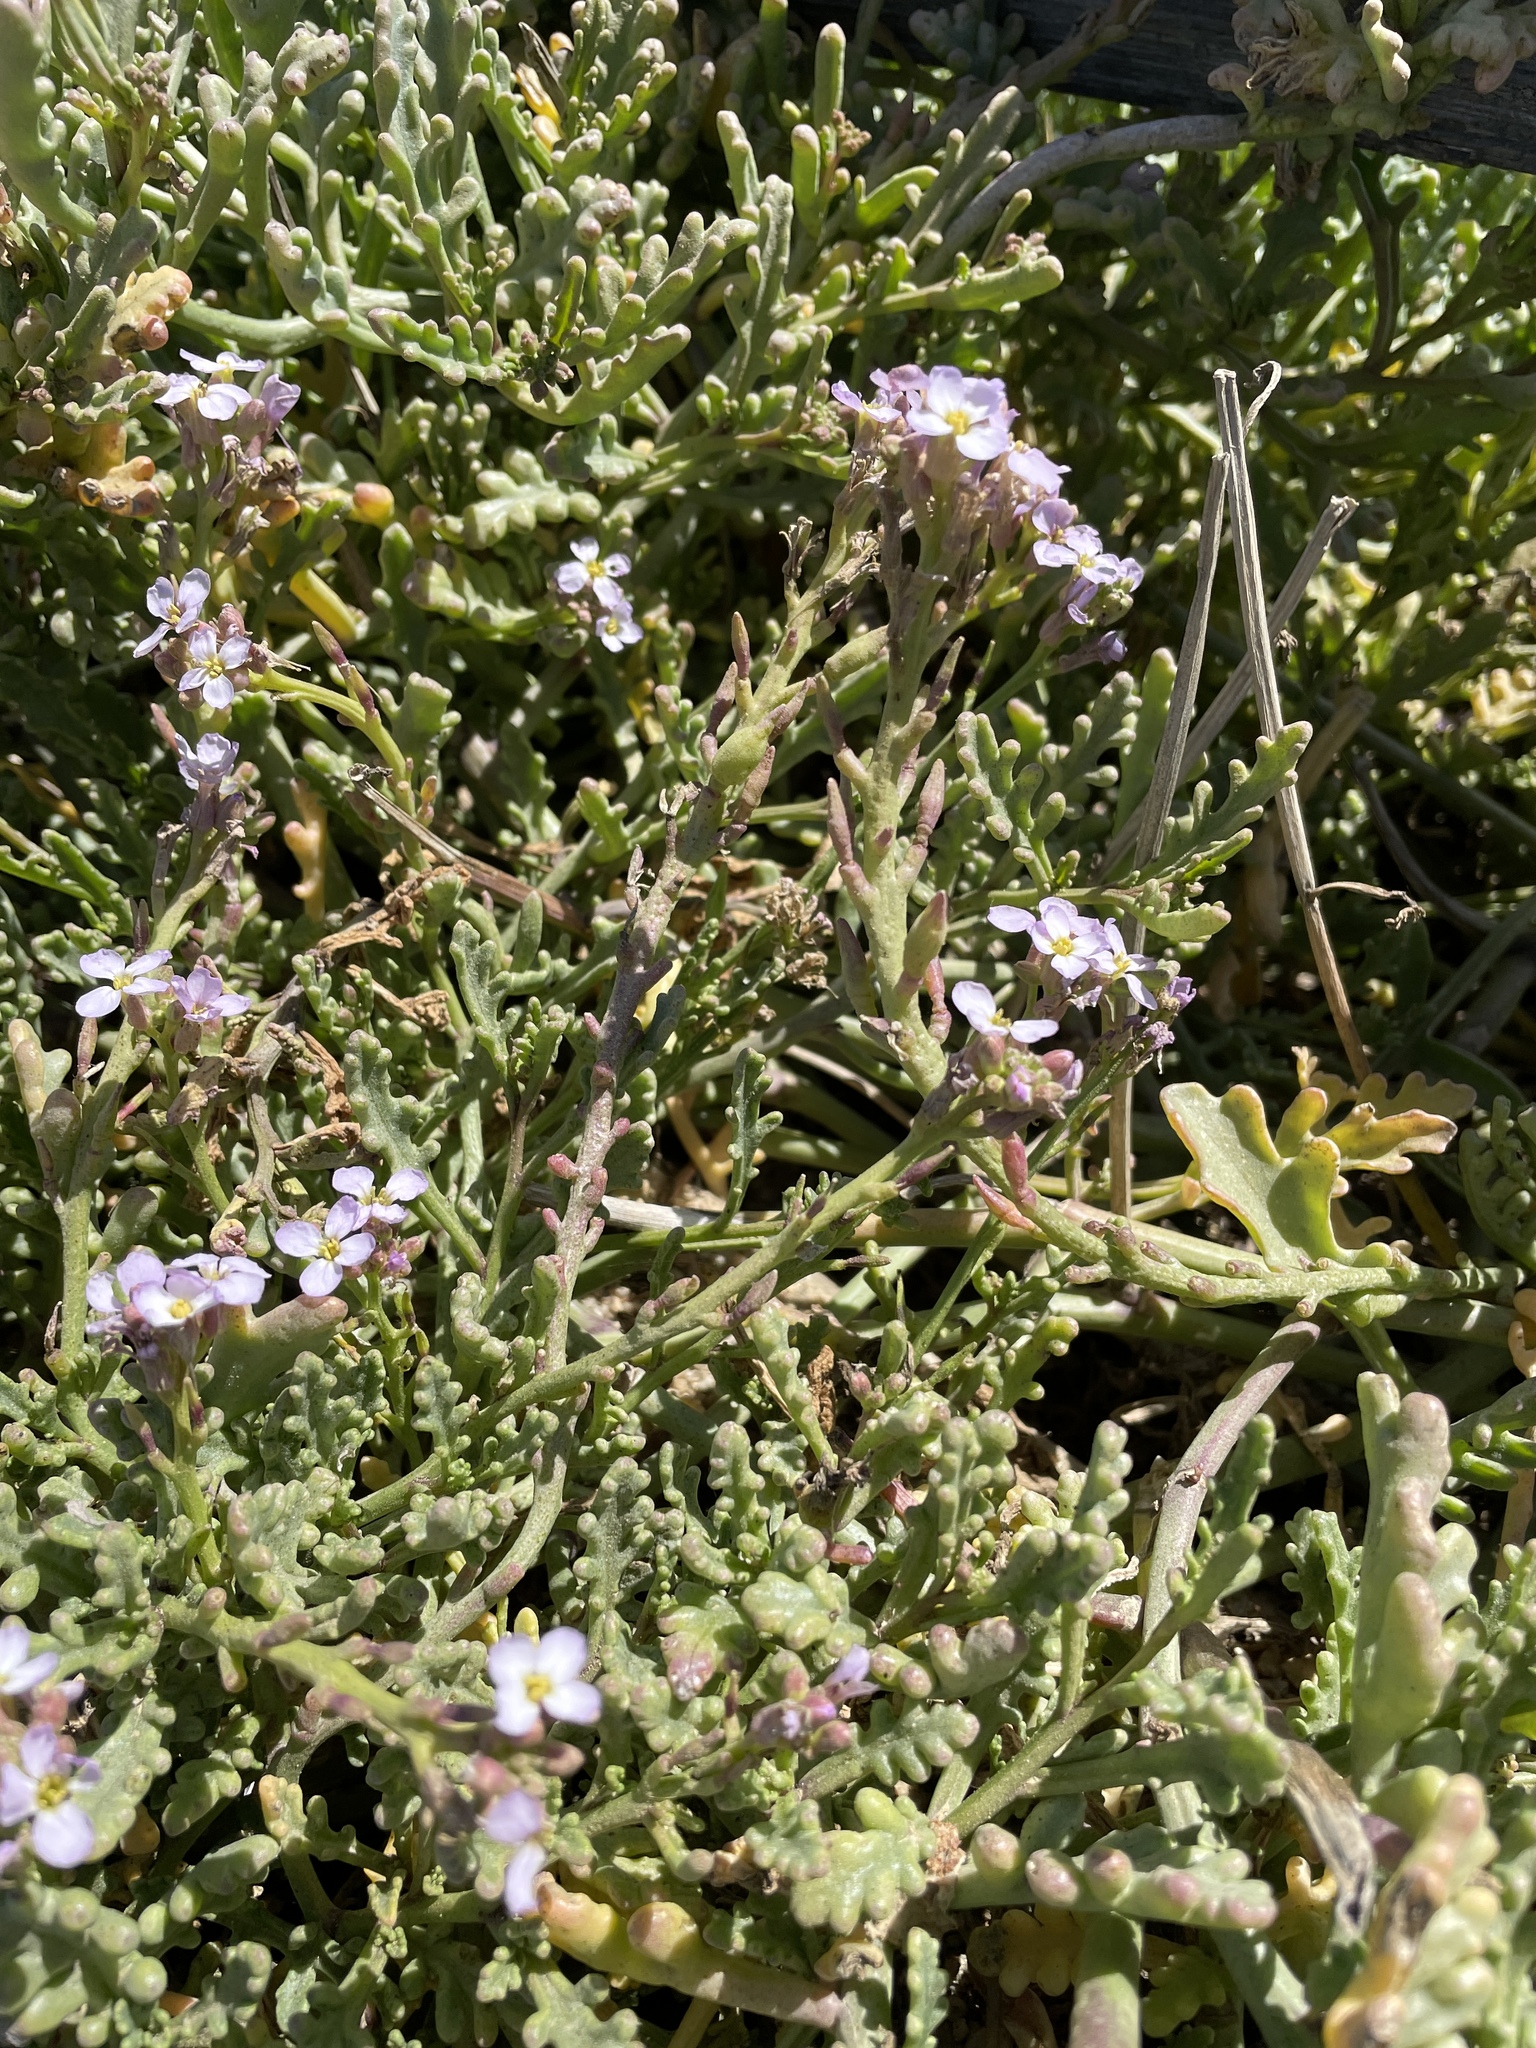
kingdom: Plantae
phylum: Tracheophyta
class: Magnoliopsida
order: Brassicales
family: Brassicaceae
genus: Cakile
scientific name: Cakile maritima
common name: Sea rocket
